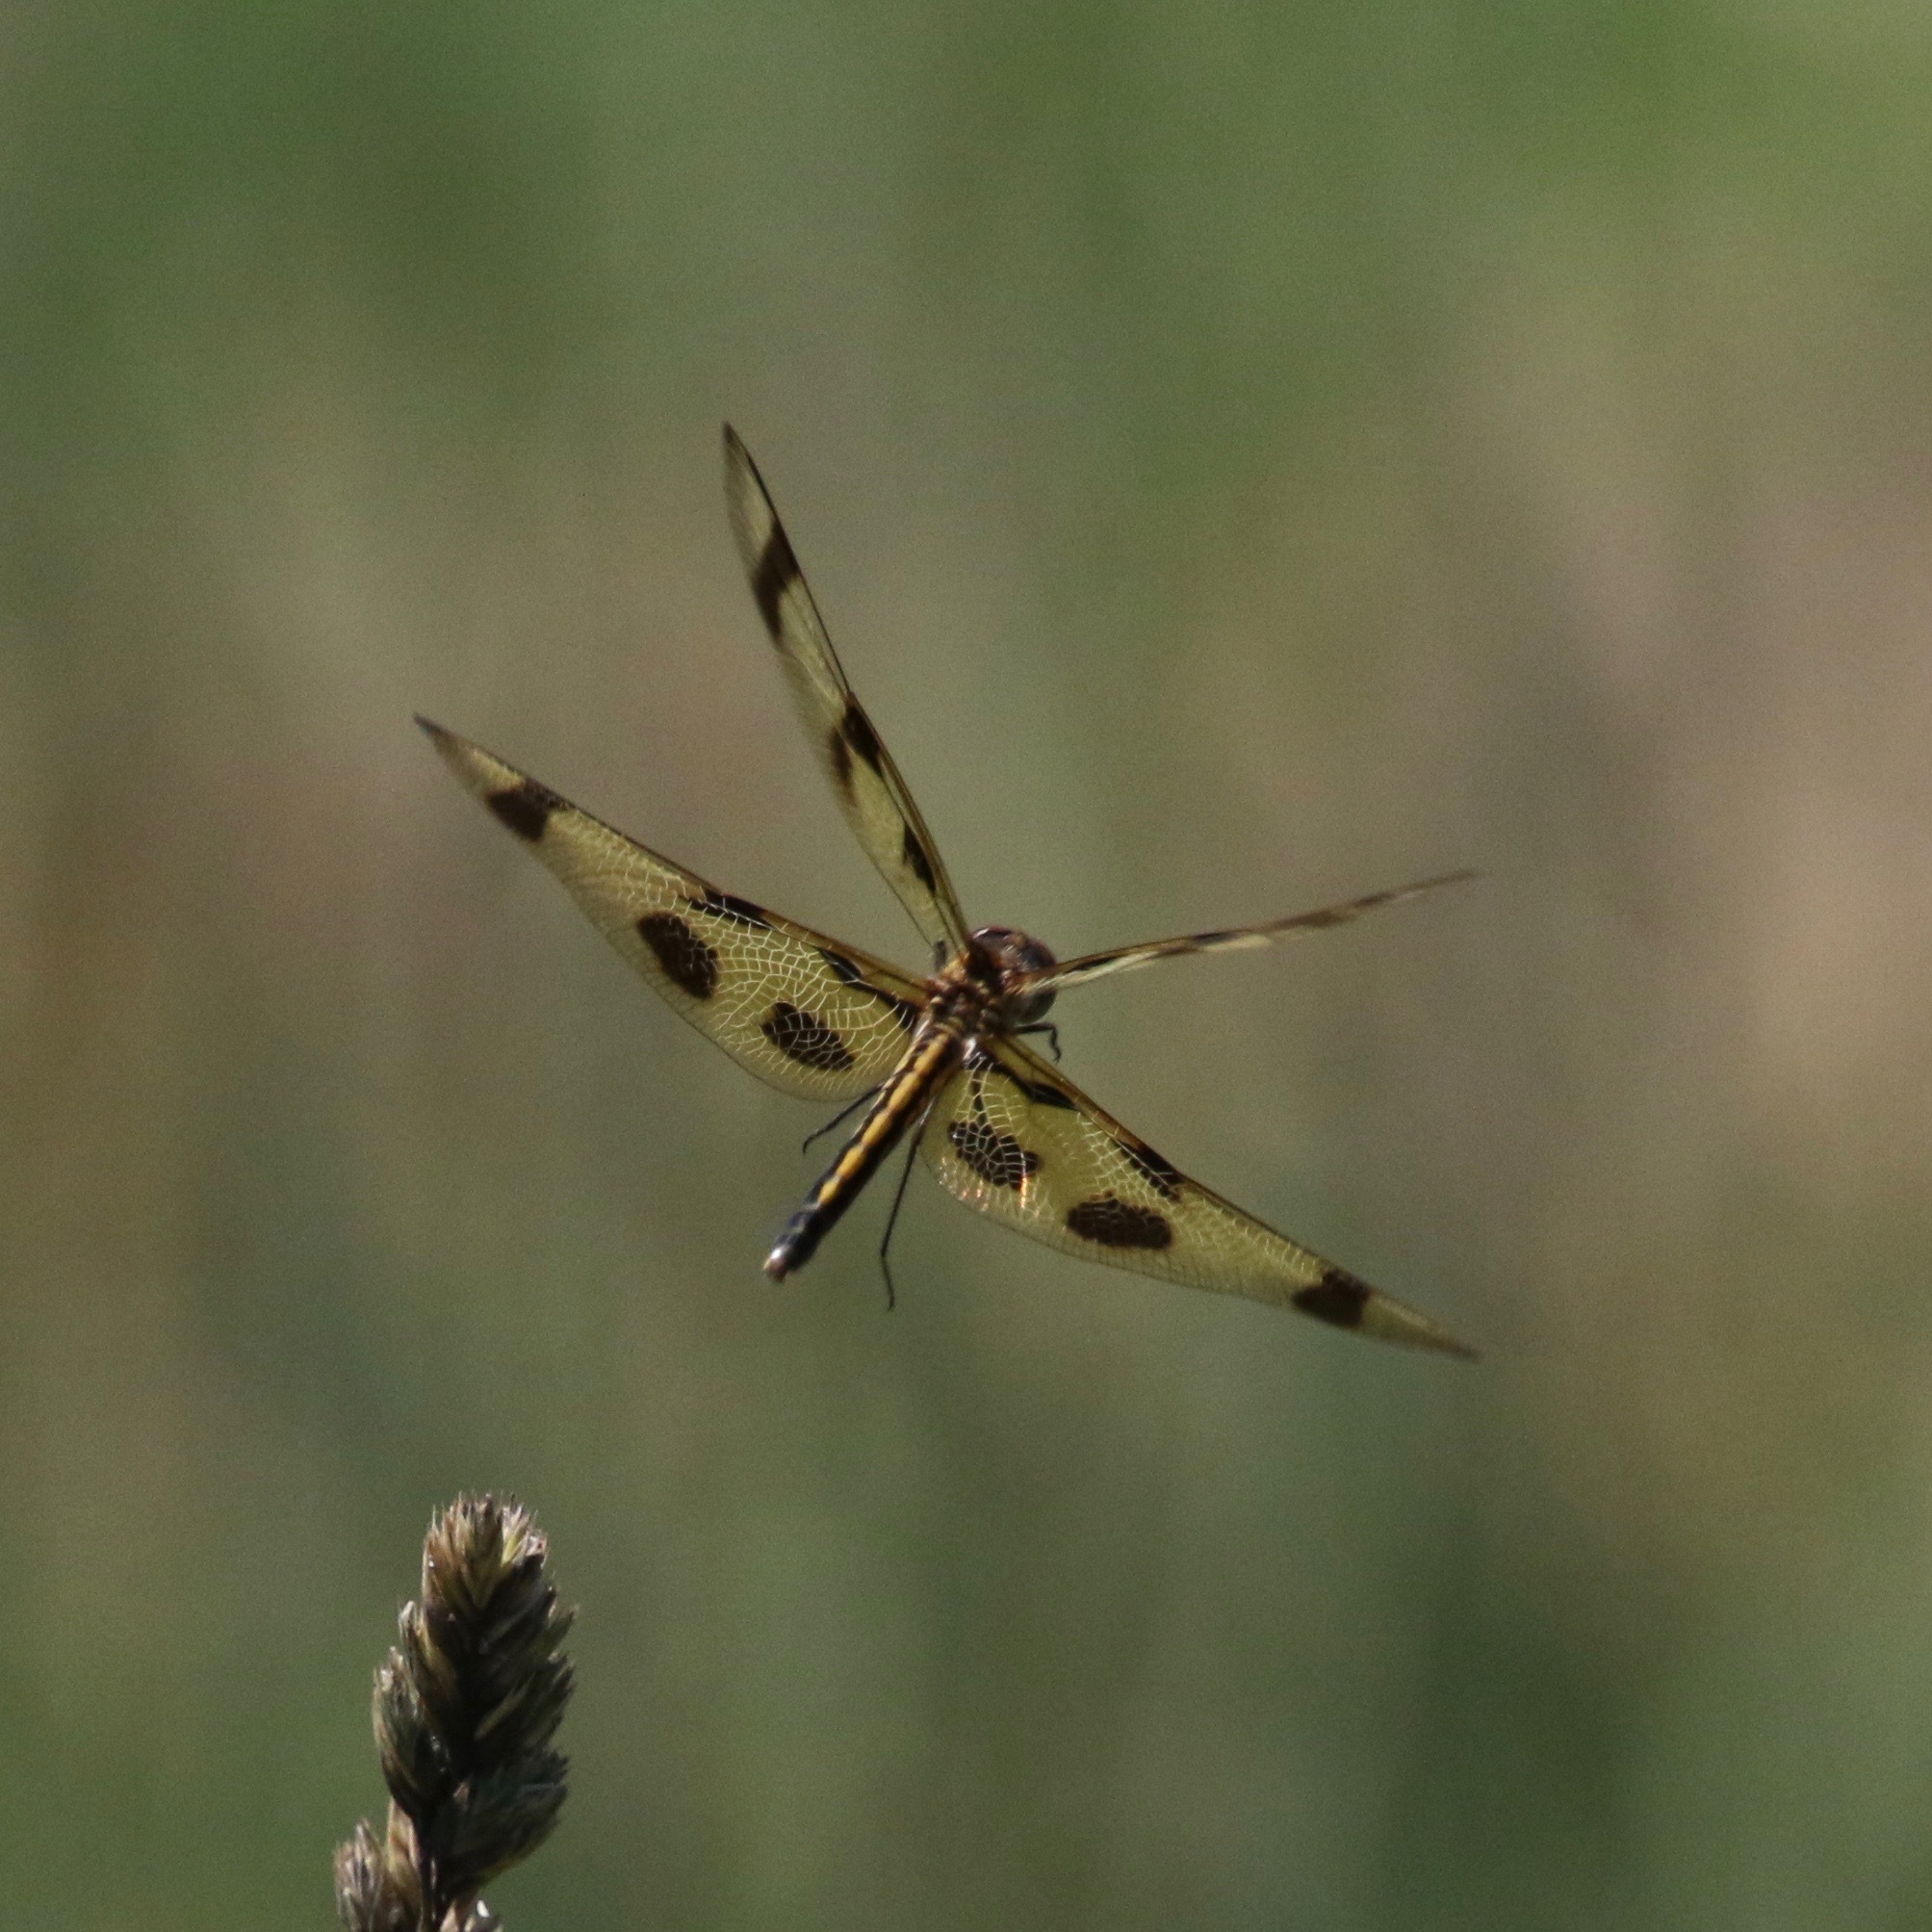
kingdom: Animalia
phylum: Arthropoda
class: Insecta
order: Odonata
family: Libellulidae
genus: Celithemis
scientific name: Celithemis eponina
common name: Halloween pennant
